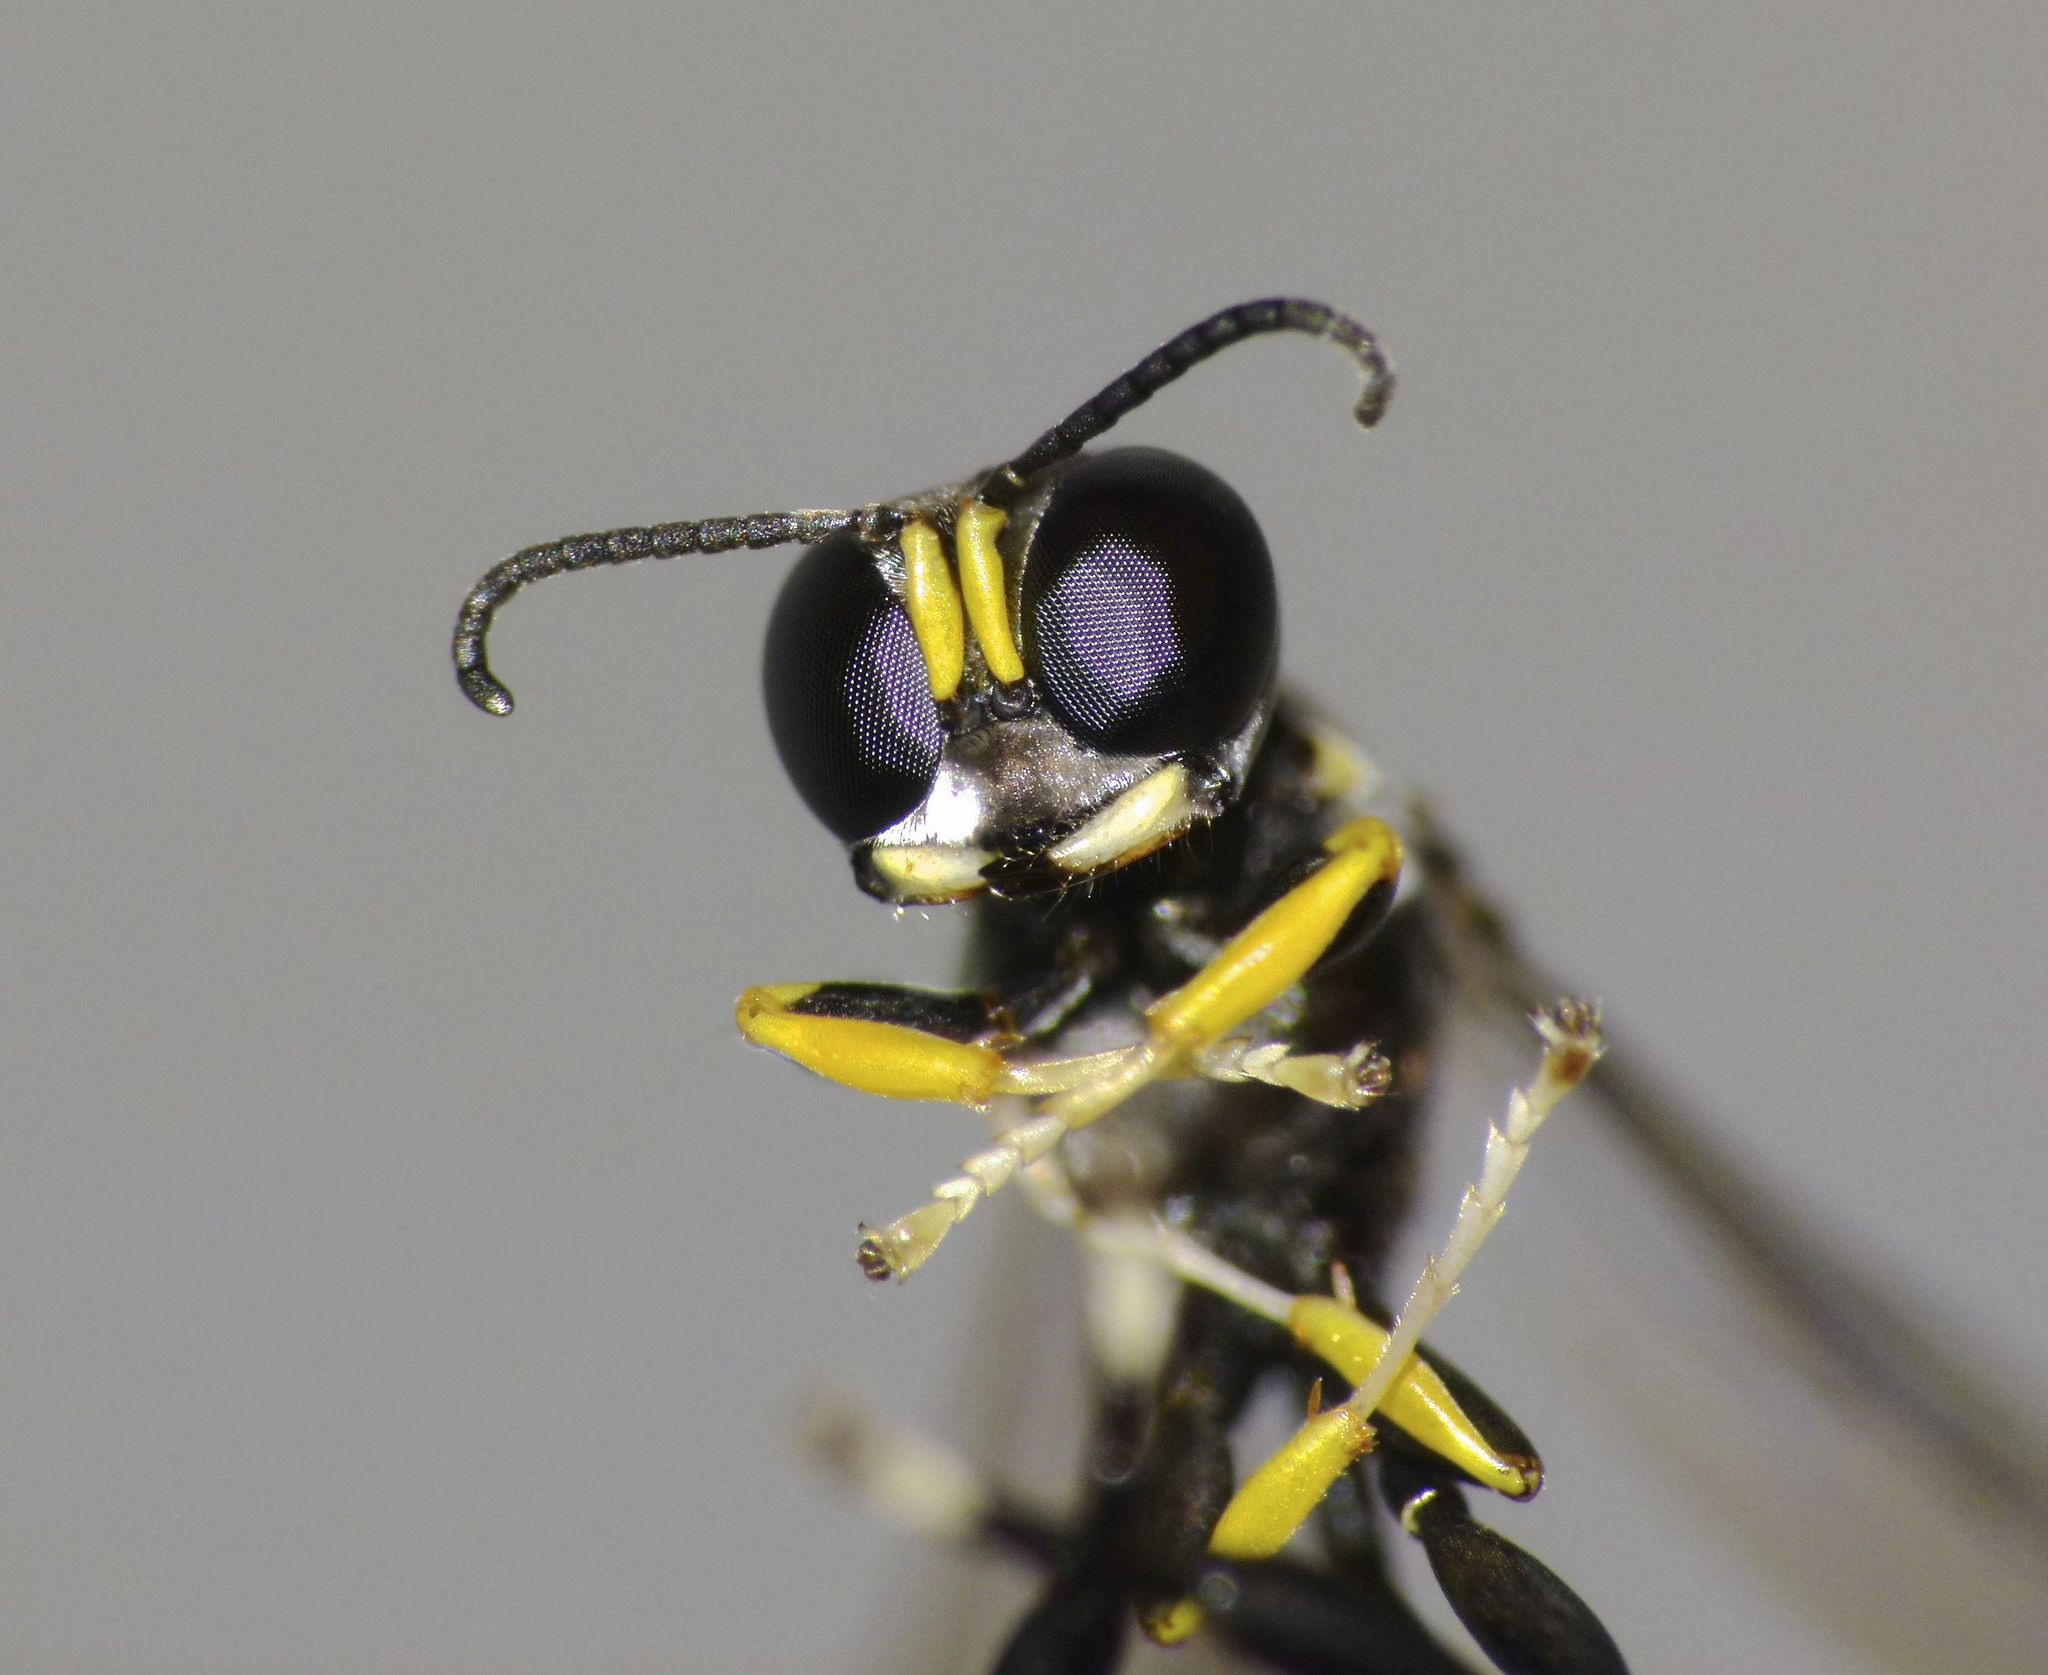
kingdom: Animalia
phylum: Arthropoda
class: Insecta
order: Hymenoptera
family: Crabronidae
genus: Rhopalum
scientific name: Rhopalum aucklandi
